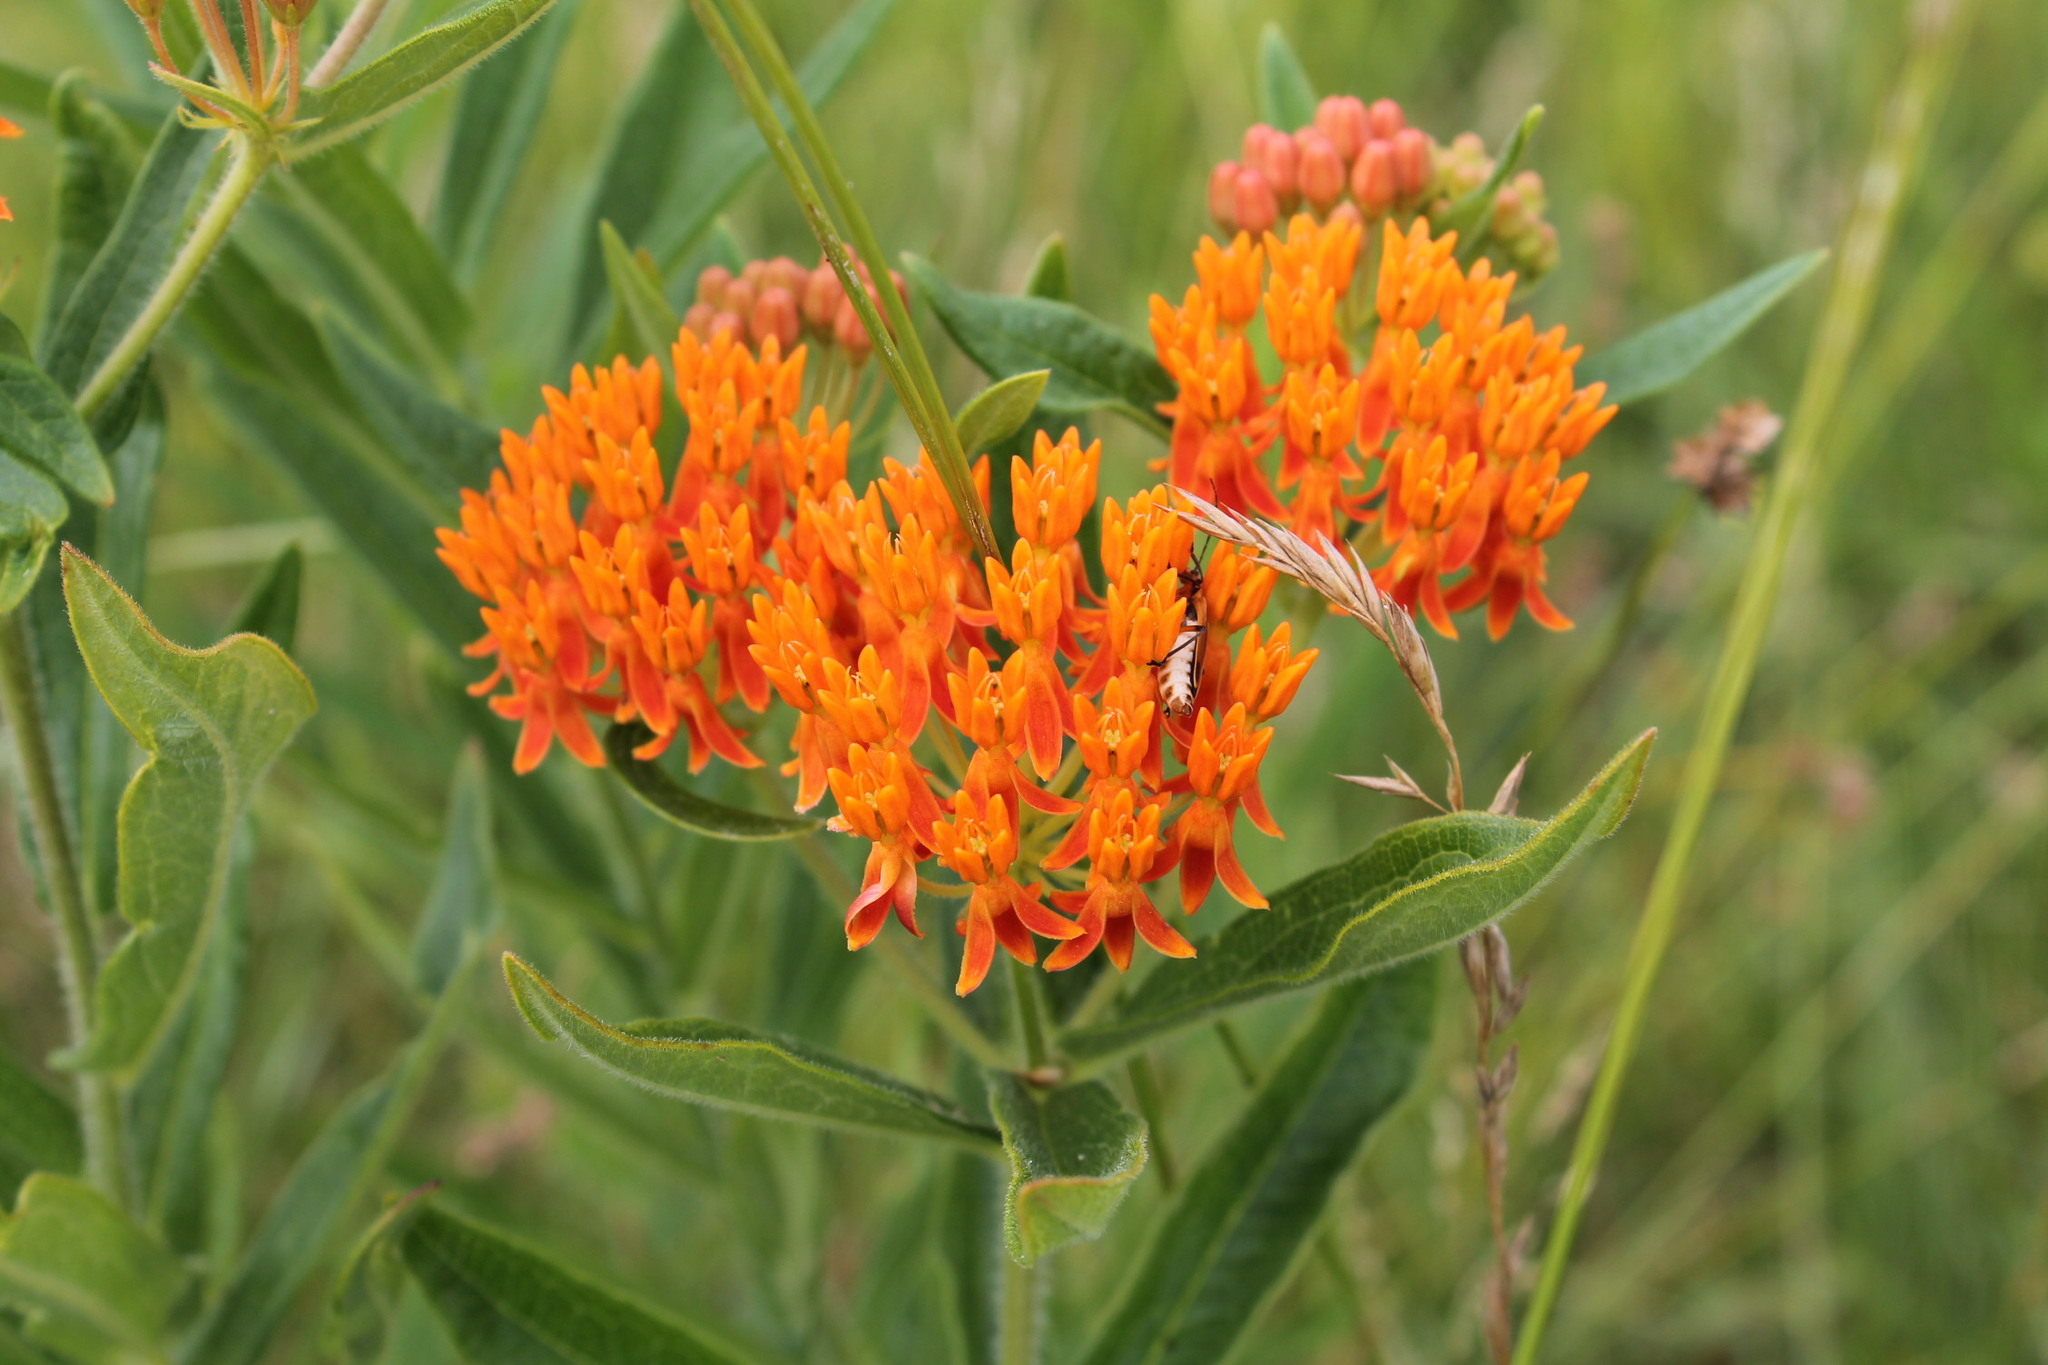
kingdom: Animalia
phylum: Arthropoda
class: Insecta
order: Coleoptera
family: Cantharidae
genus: Chauliognathus
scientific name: Chauliognathus marginatus
